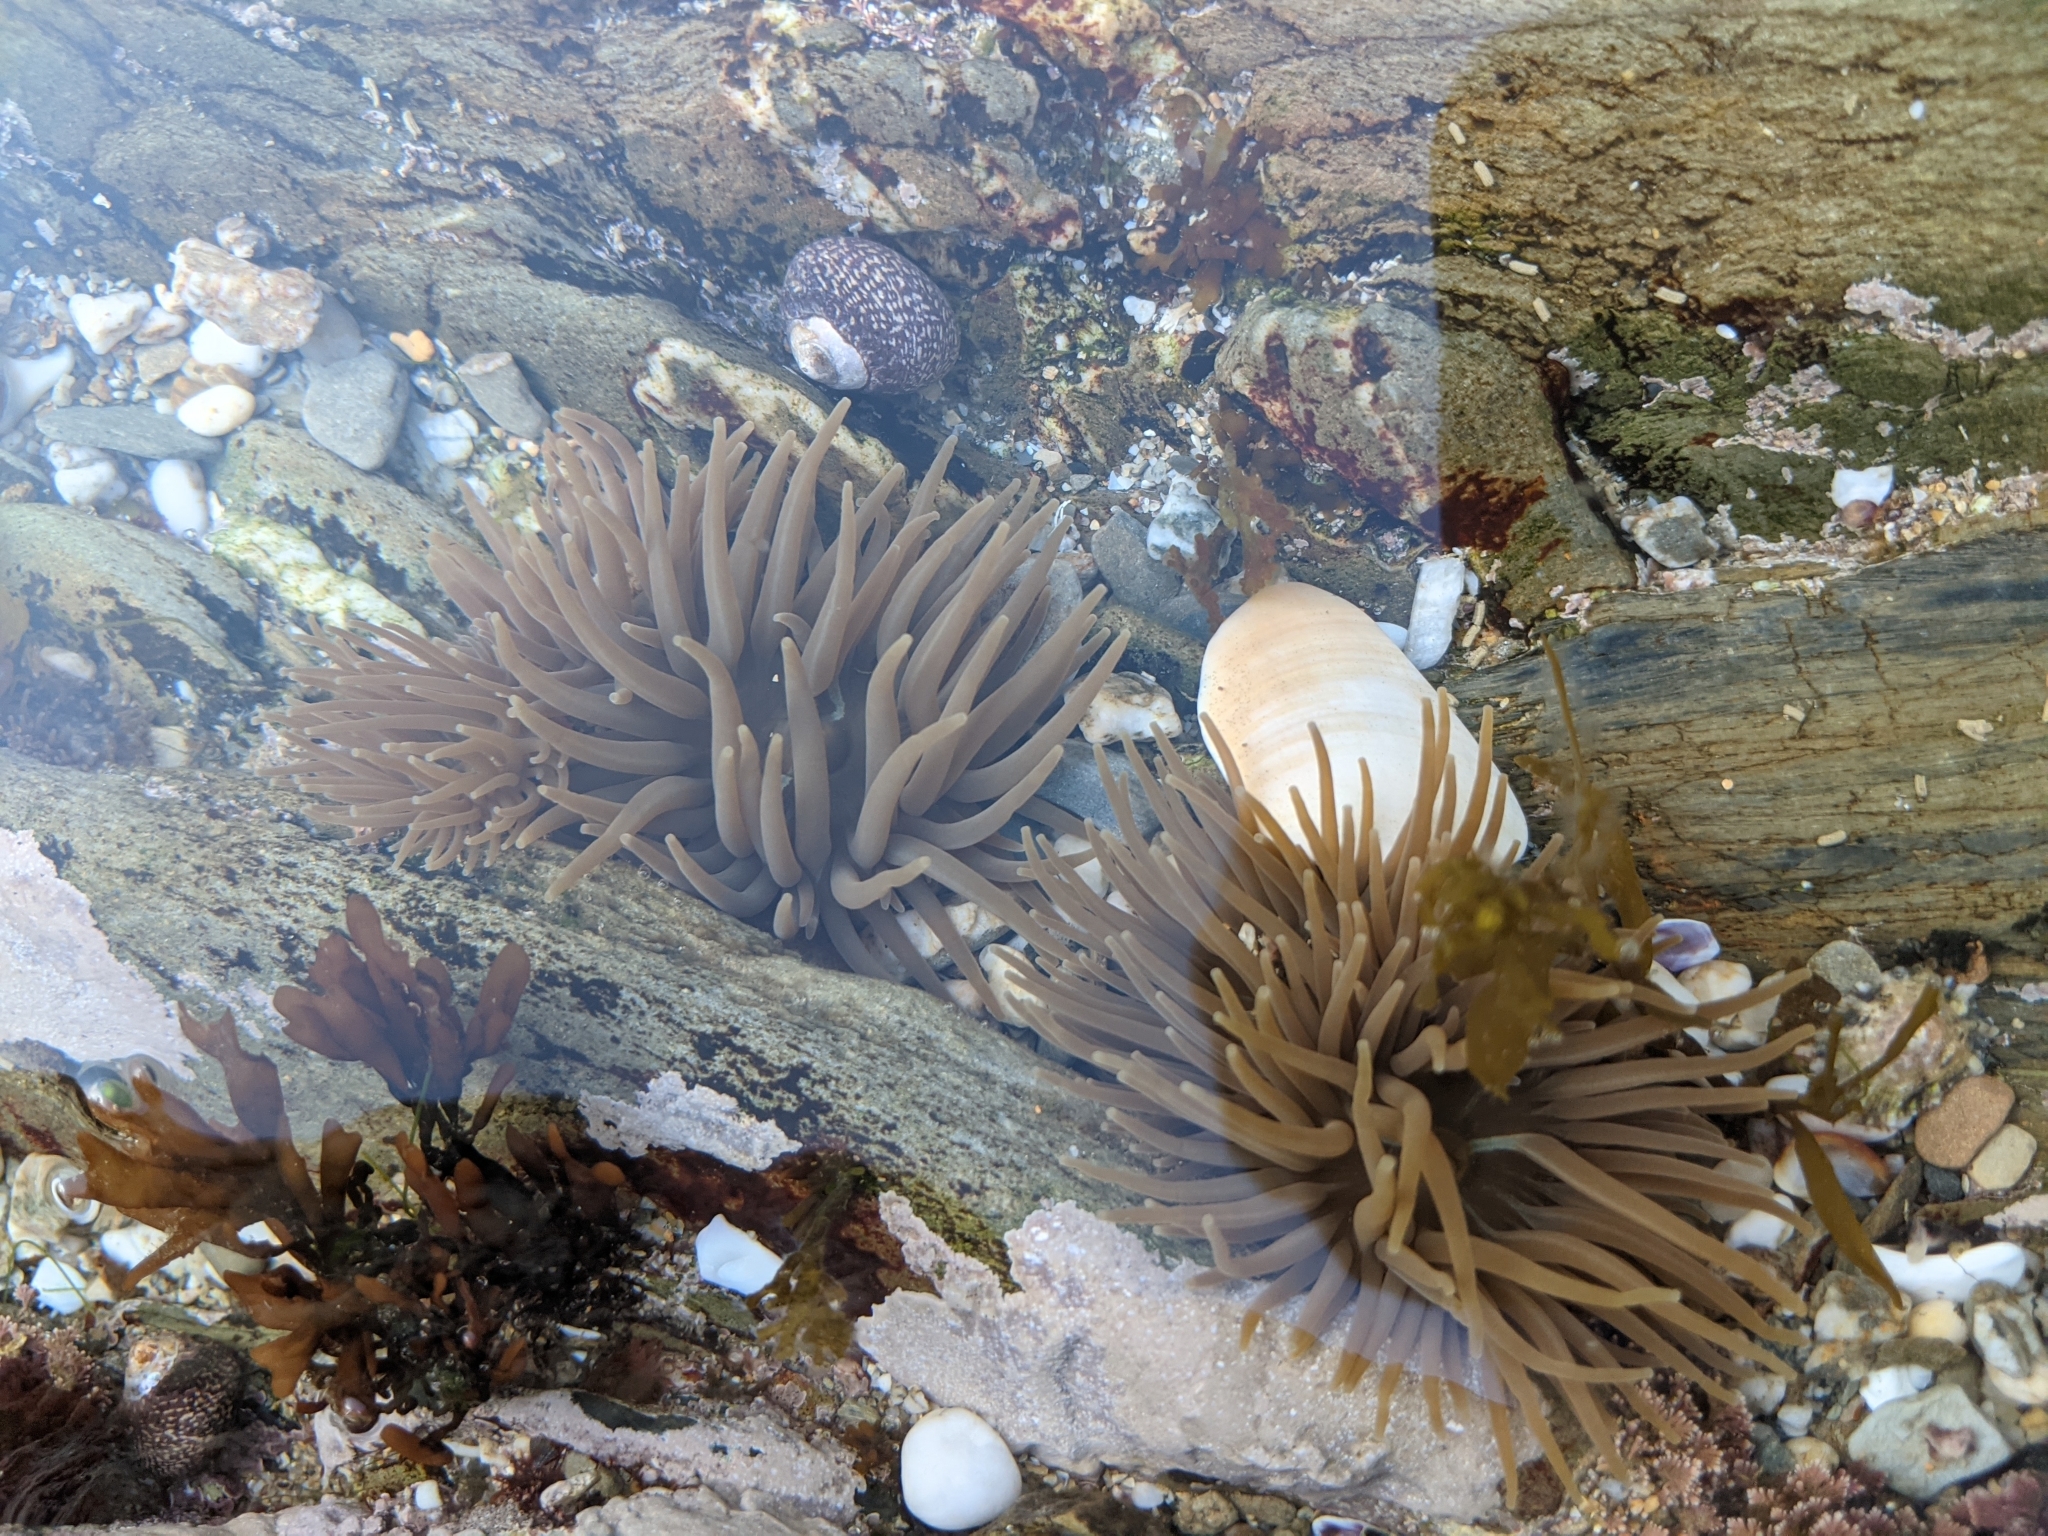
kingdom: Animalia
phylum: Cnidaria
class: Anthozoa
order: Actiniaria
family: Actiniidae
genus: Anemonia
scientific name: Anemonia viridis
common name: Snakelocks anemone
